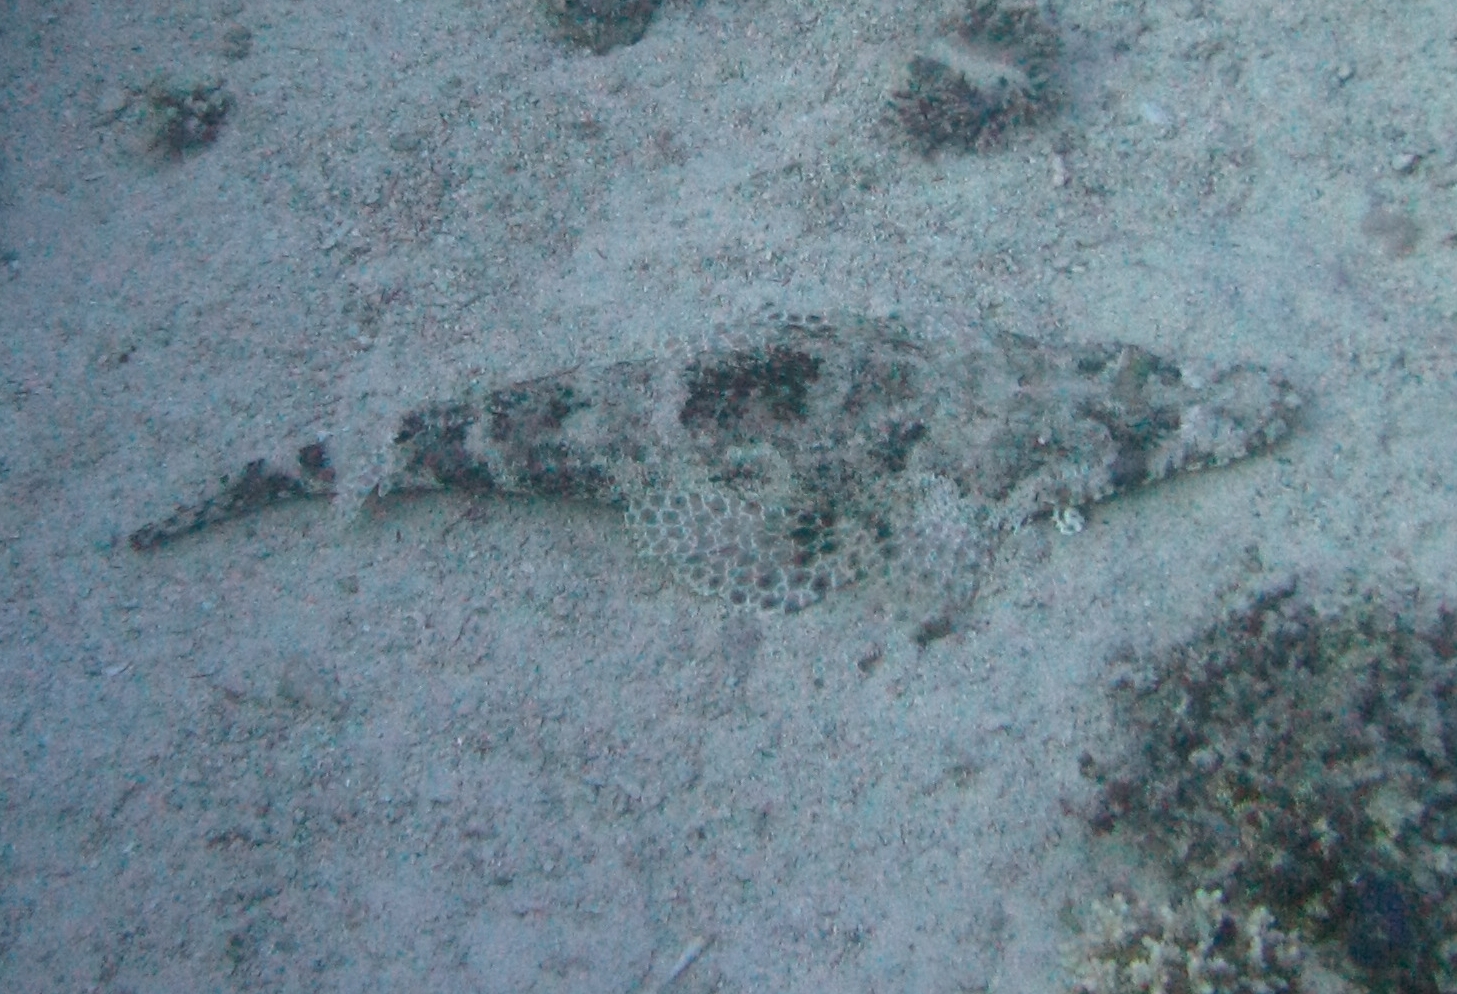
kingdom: Animalia
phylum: Chordata
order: Scorpaeniformes
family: Platycephalidae
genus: Papilloculiceps
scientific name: Papilloculiceps longiceps
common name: Tentacled flathead
